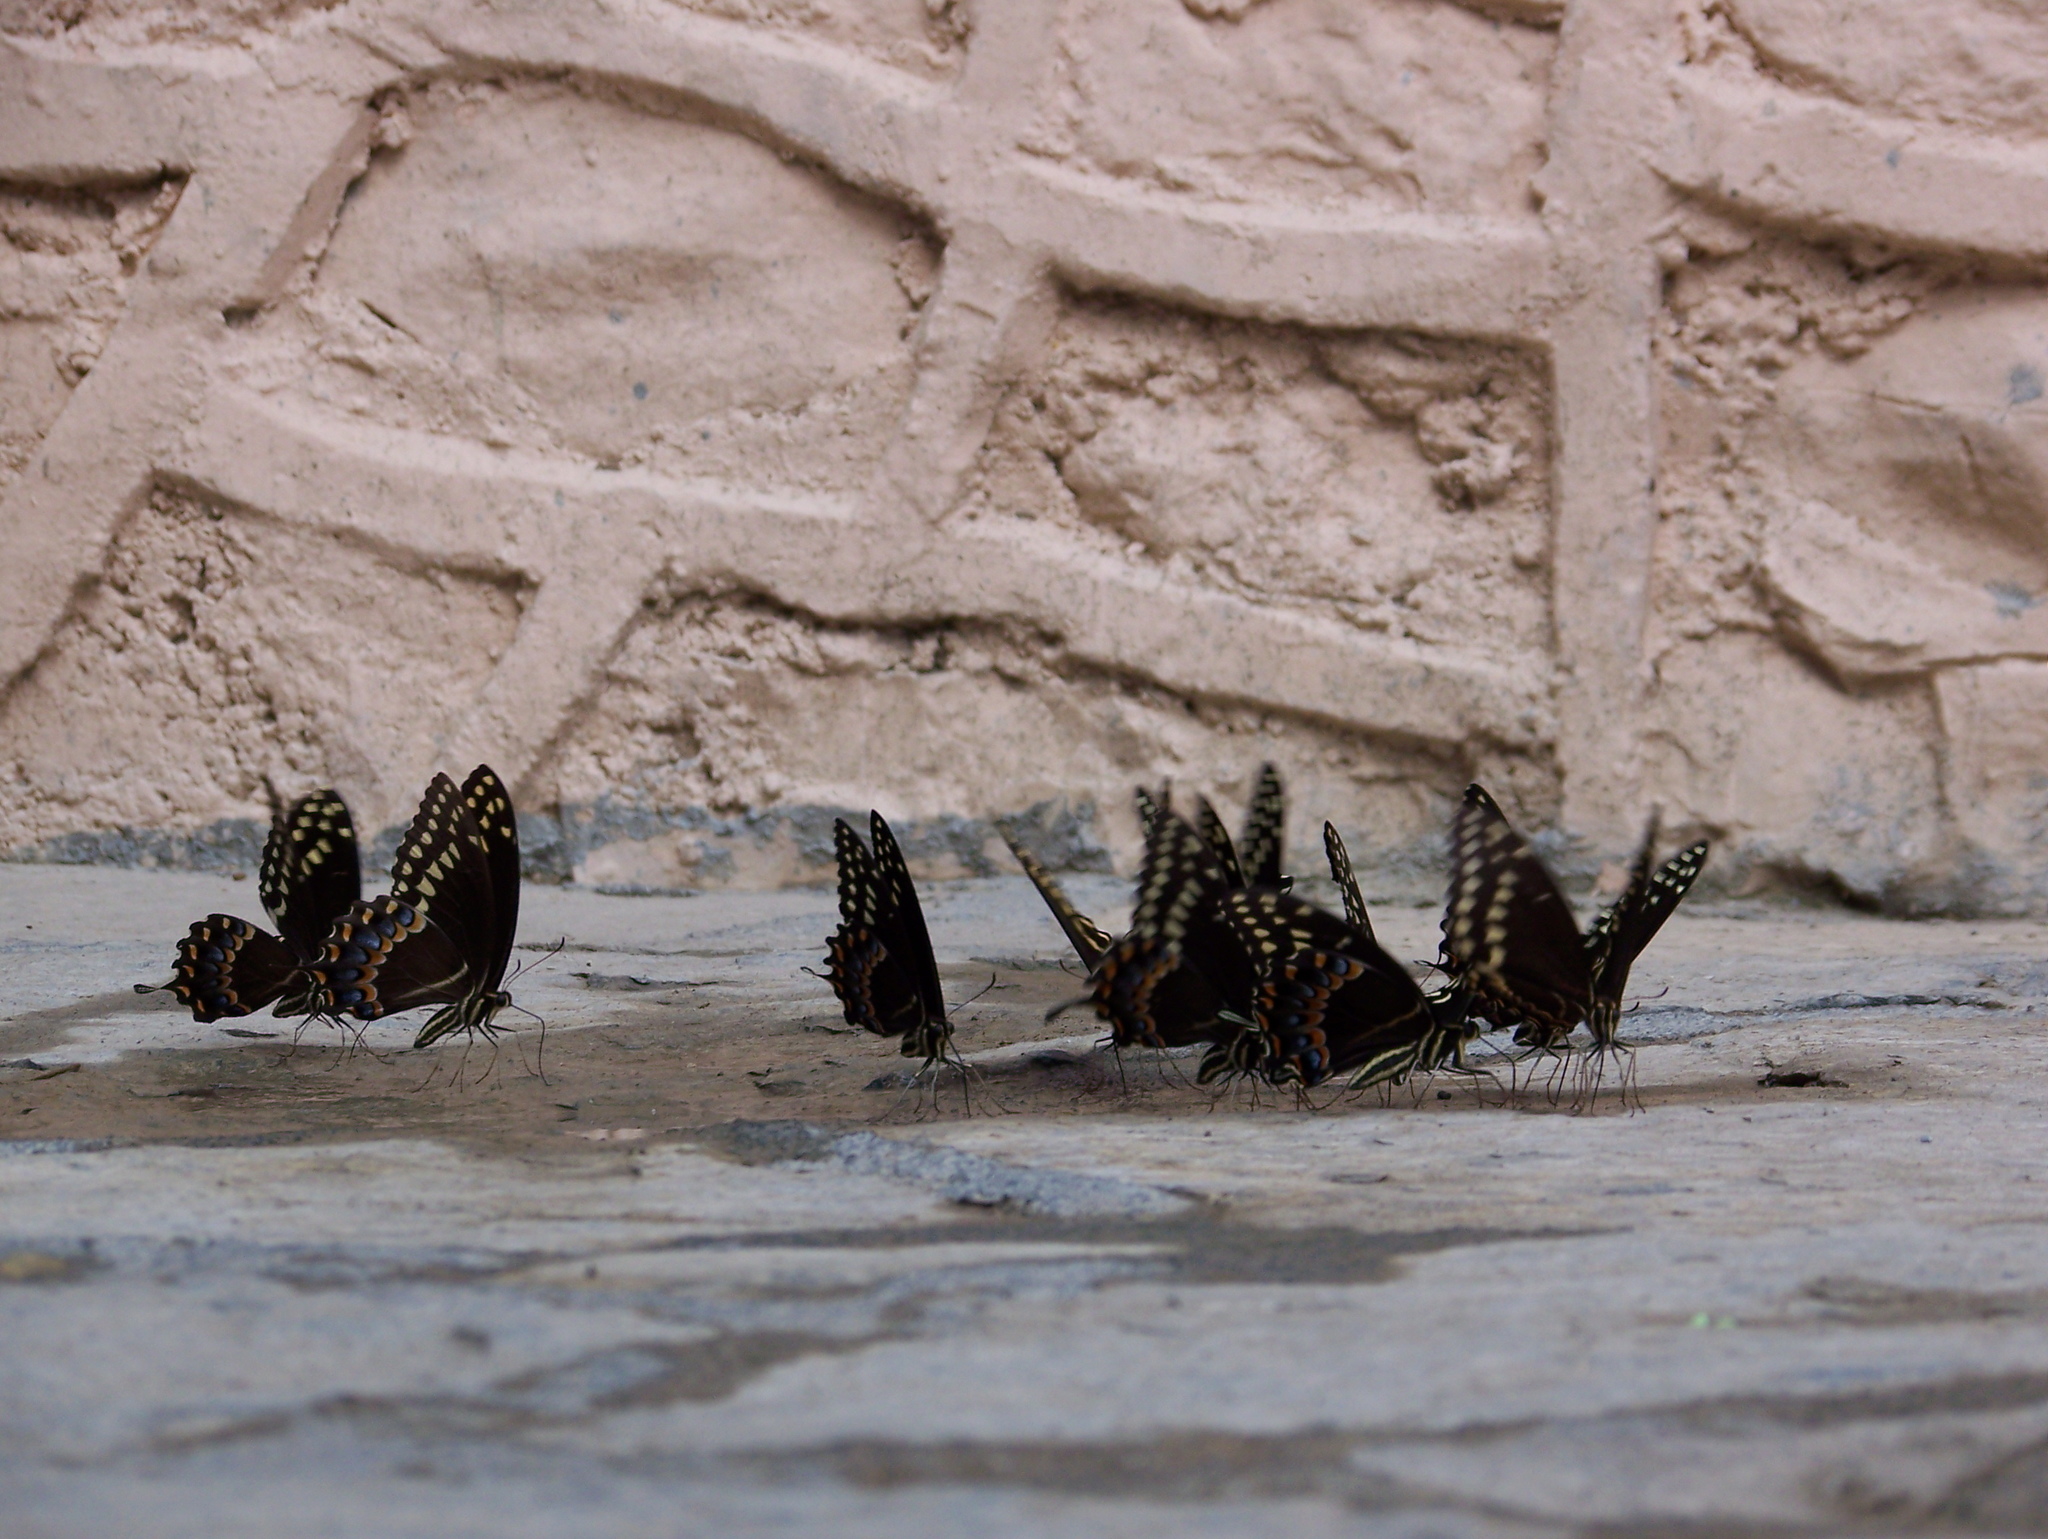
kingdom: Animalia
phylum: Arthropoda
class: Insecta
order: Lepidoptera
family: Papilionidae
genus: Papilio
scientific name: Papilio palamedes
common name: Palamedes swallowtail
